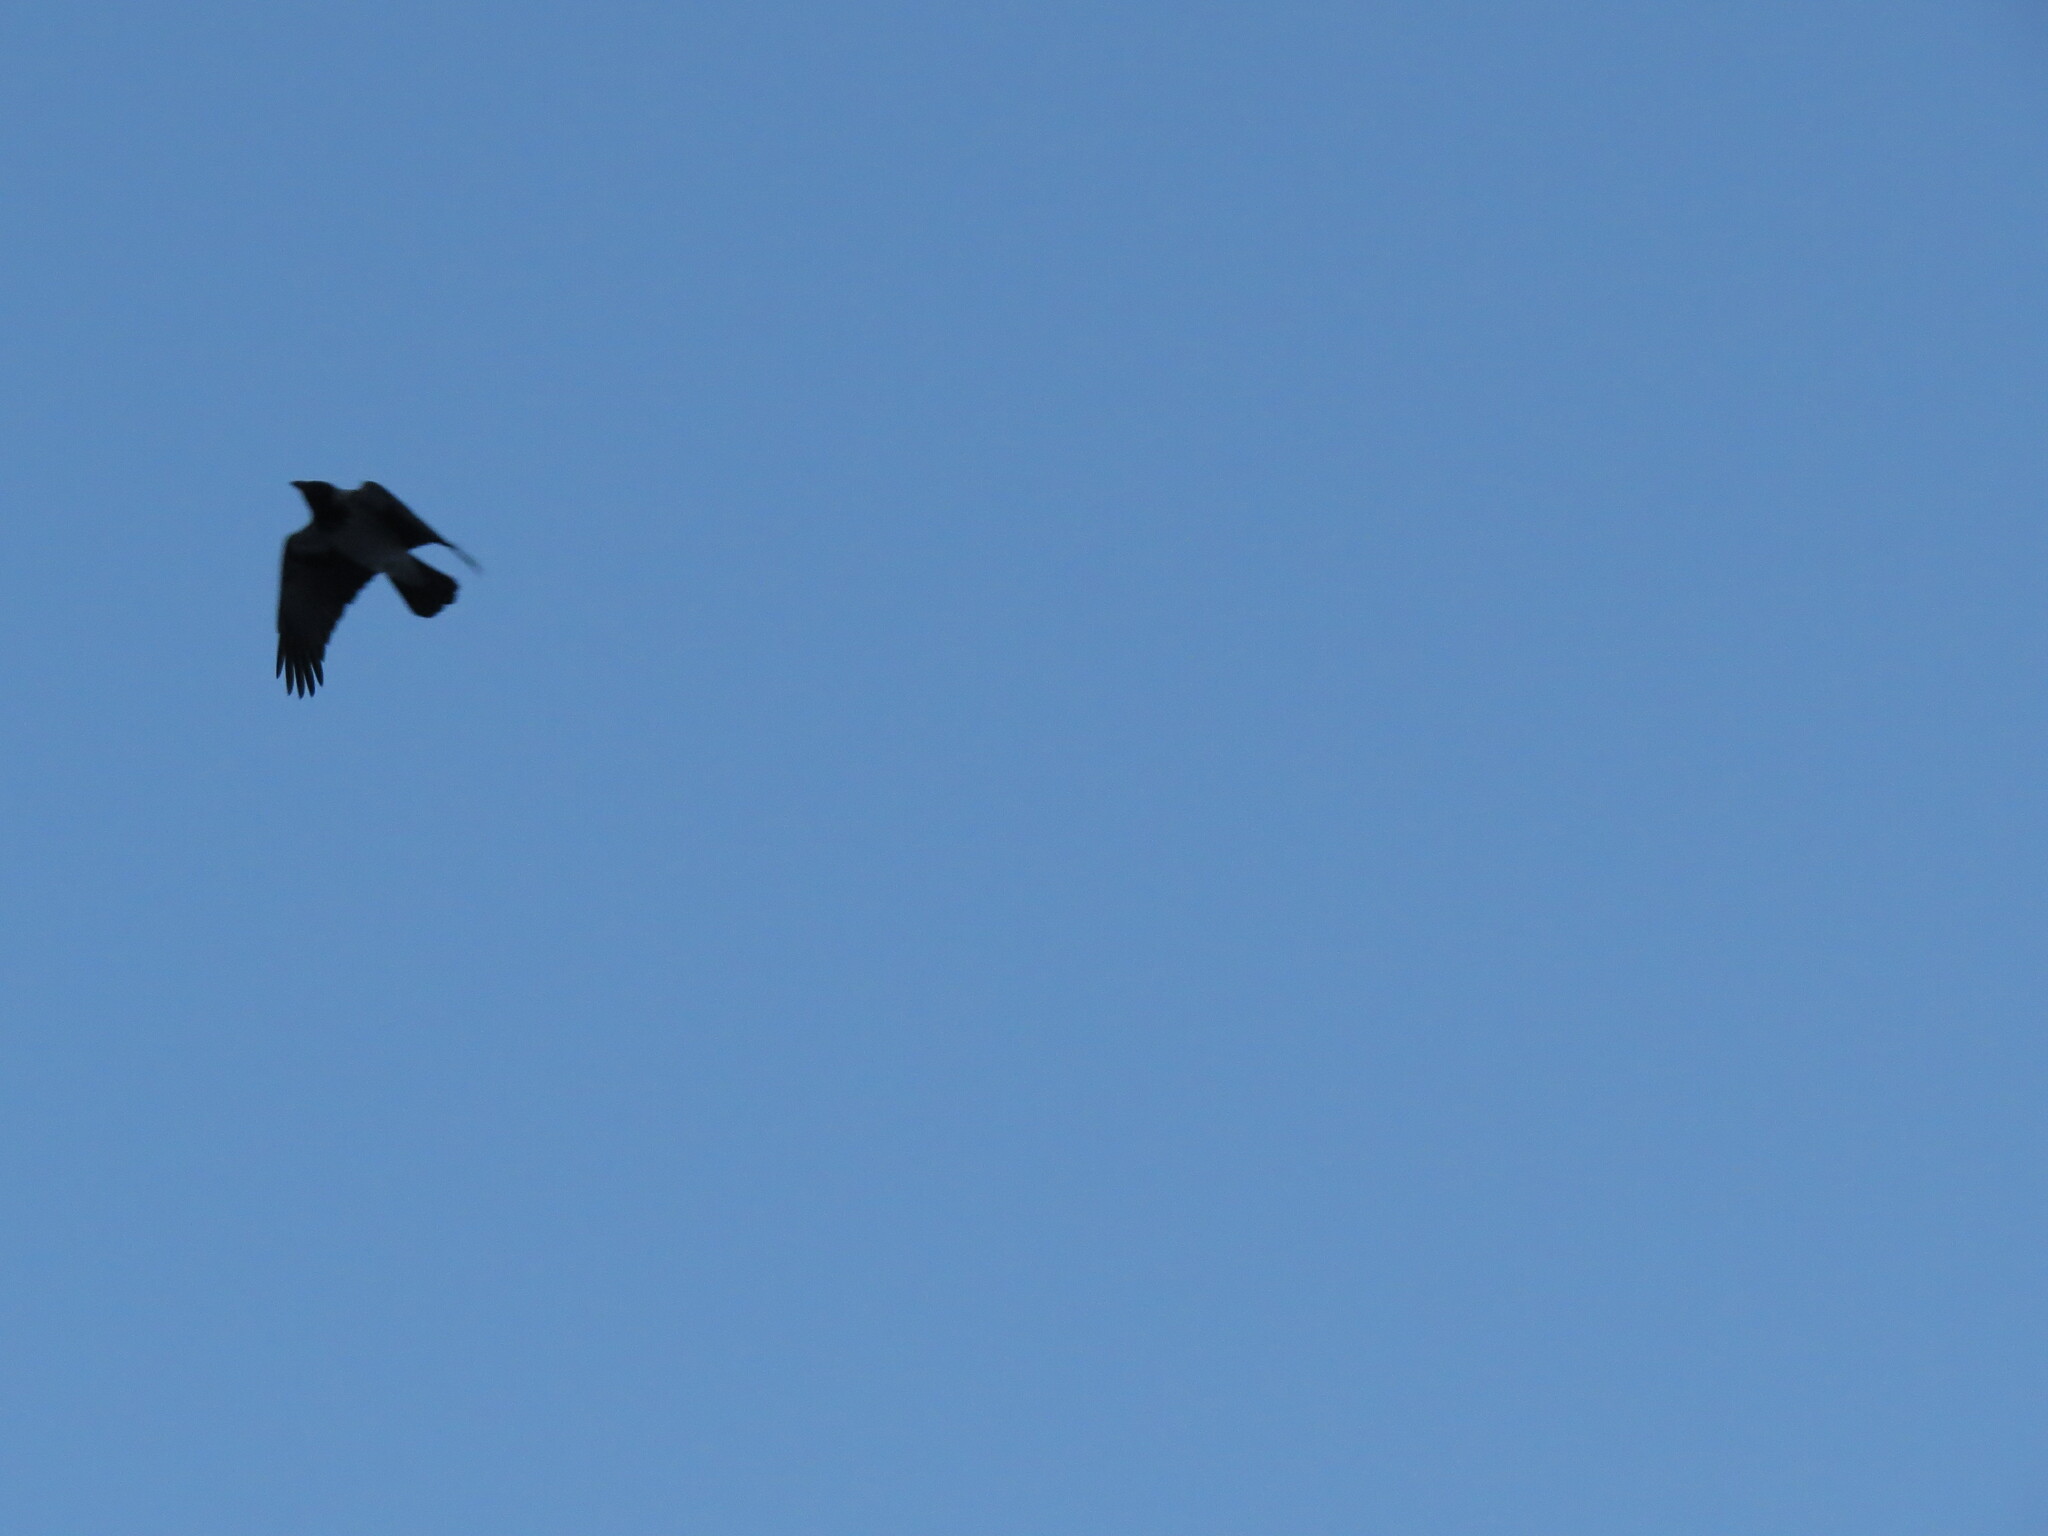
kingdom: Animalia
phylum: Chordata
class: Aves
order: Passeriformes
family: Corvidae
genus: Corvus
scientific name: Corvus cornix
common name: Hooded crow
